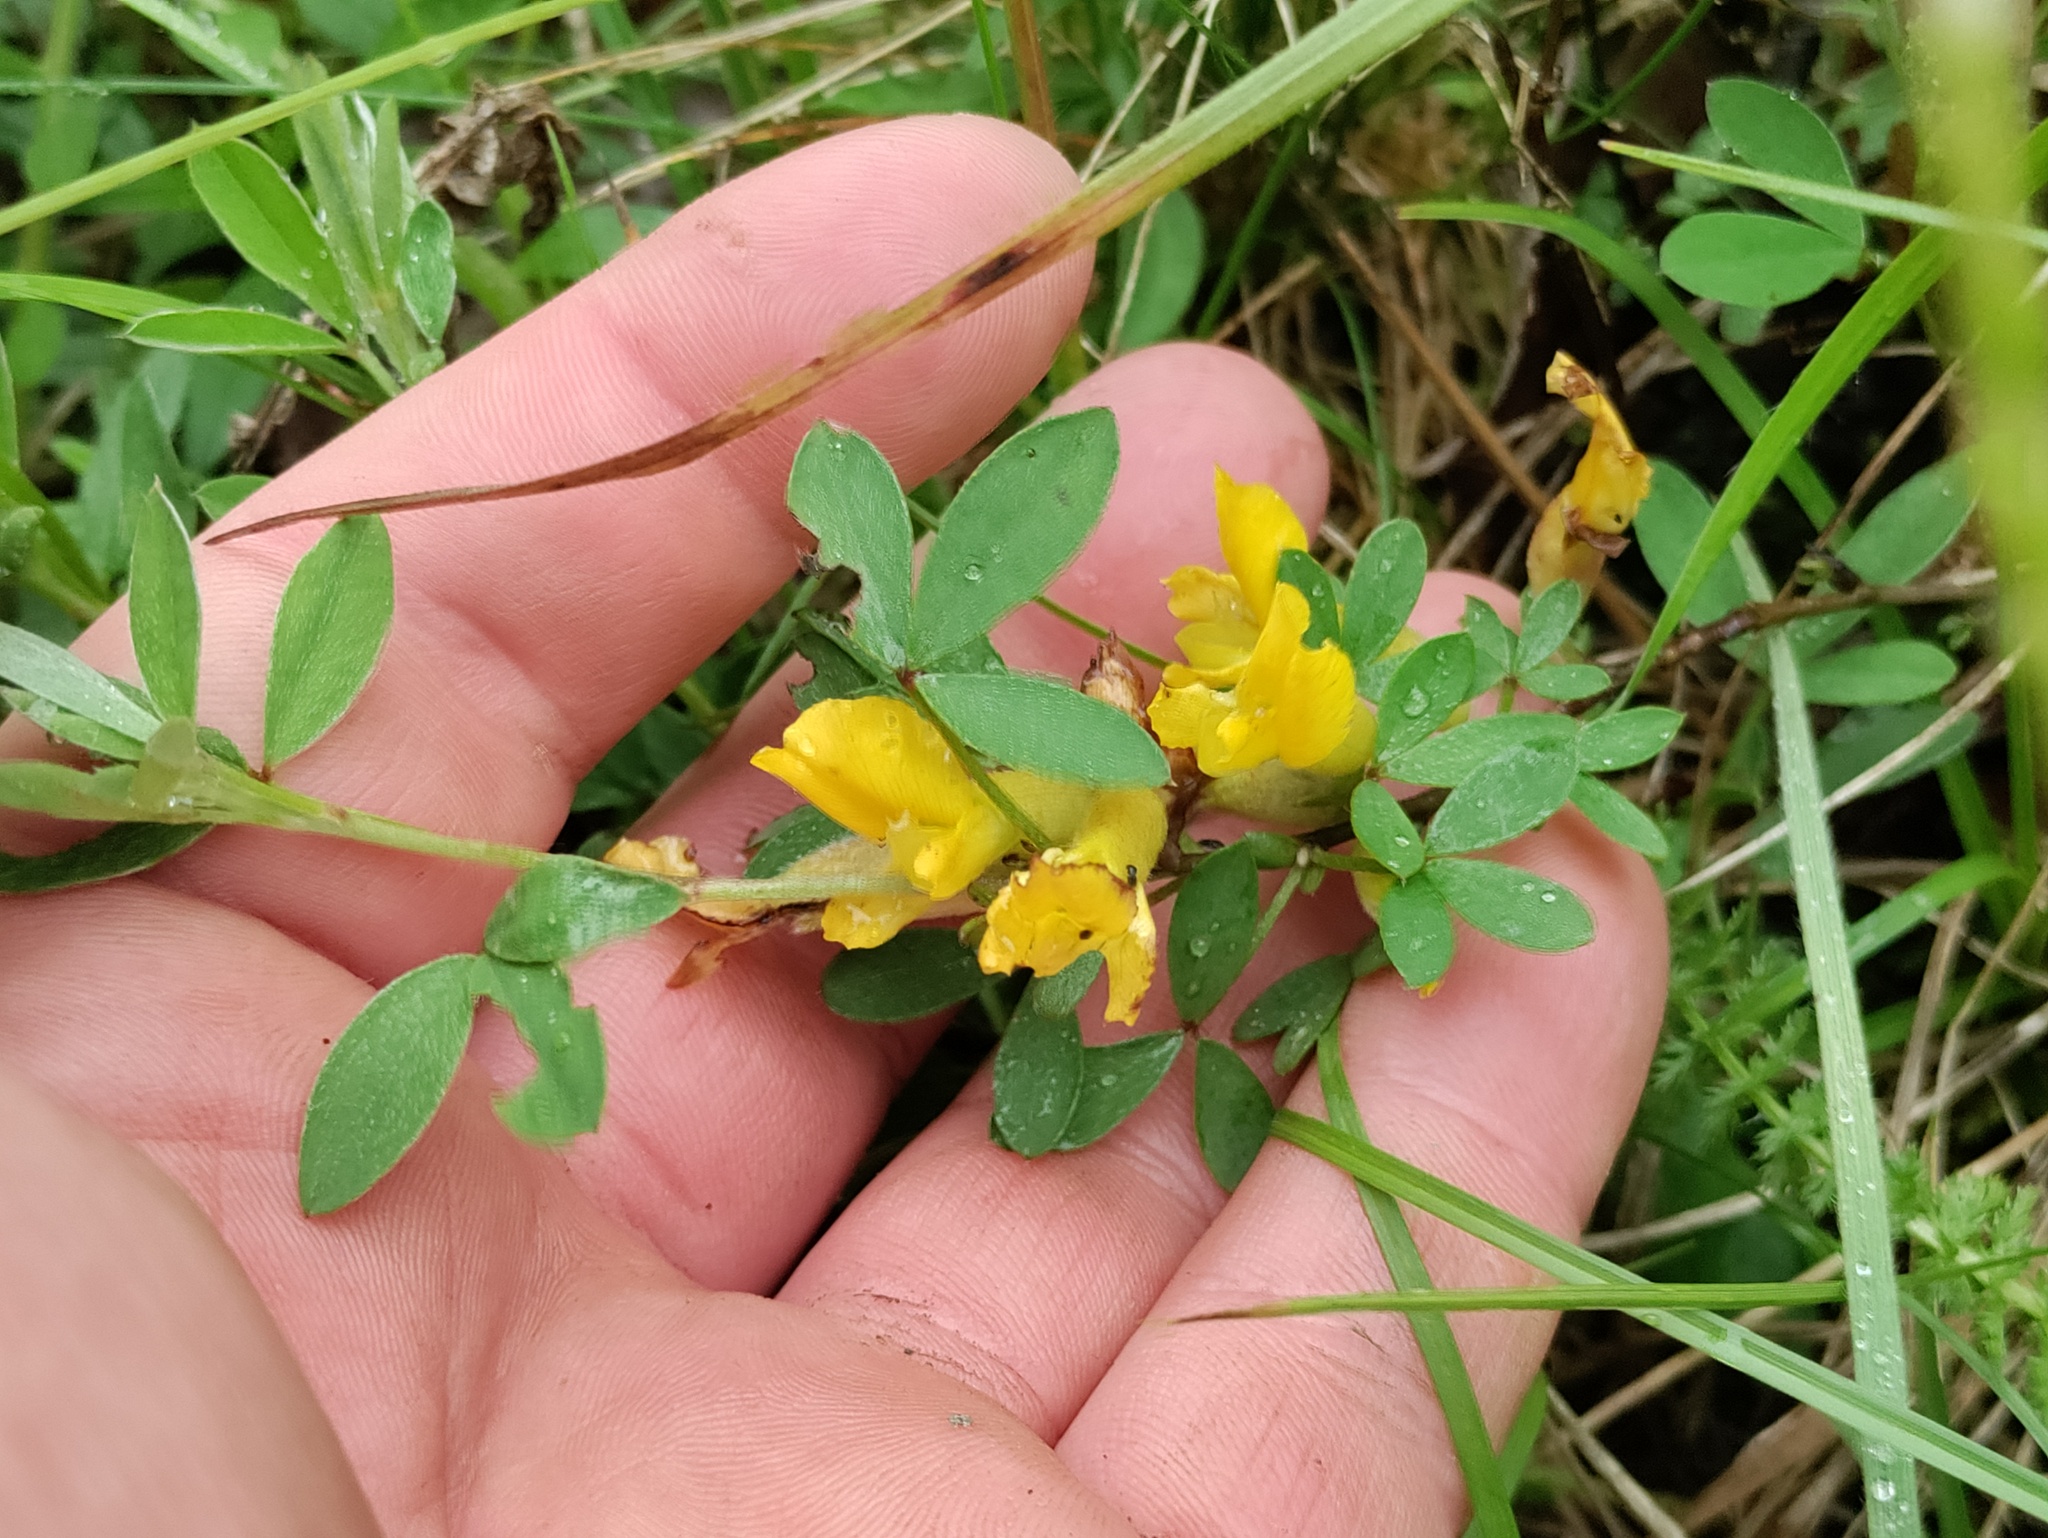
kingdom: Plantae
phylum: Tracheophyta
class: Magnoliopsida
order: Fabales
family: Fabaceae
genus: Chamaecytisus
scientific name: Chamaecytisus ratisbonensis
